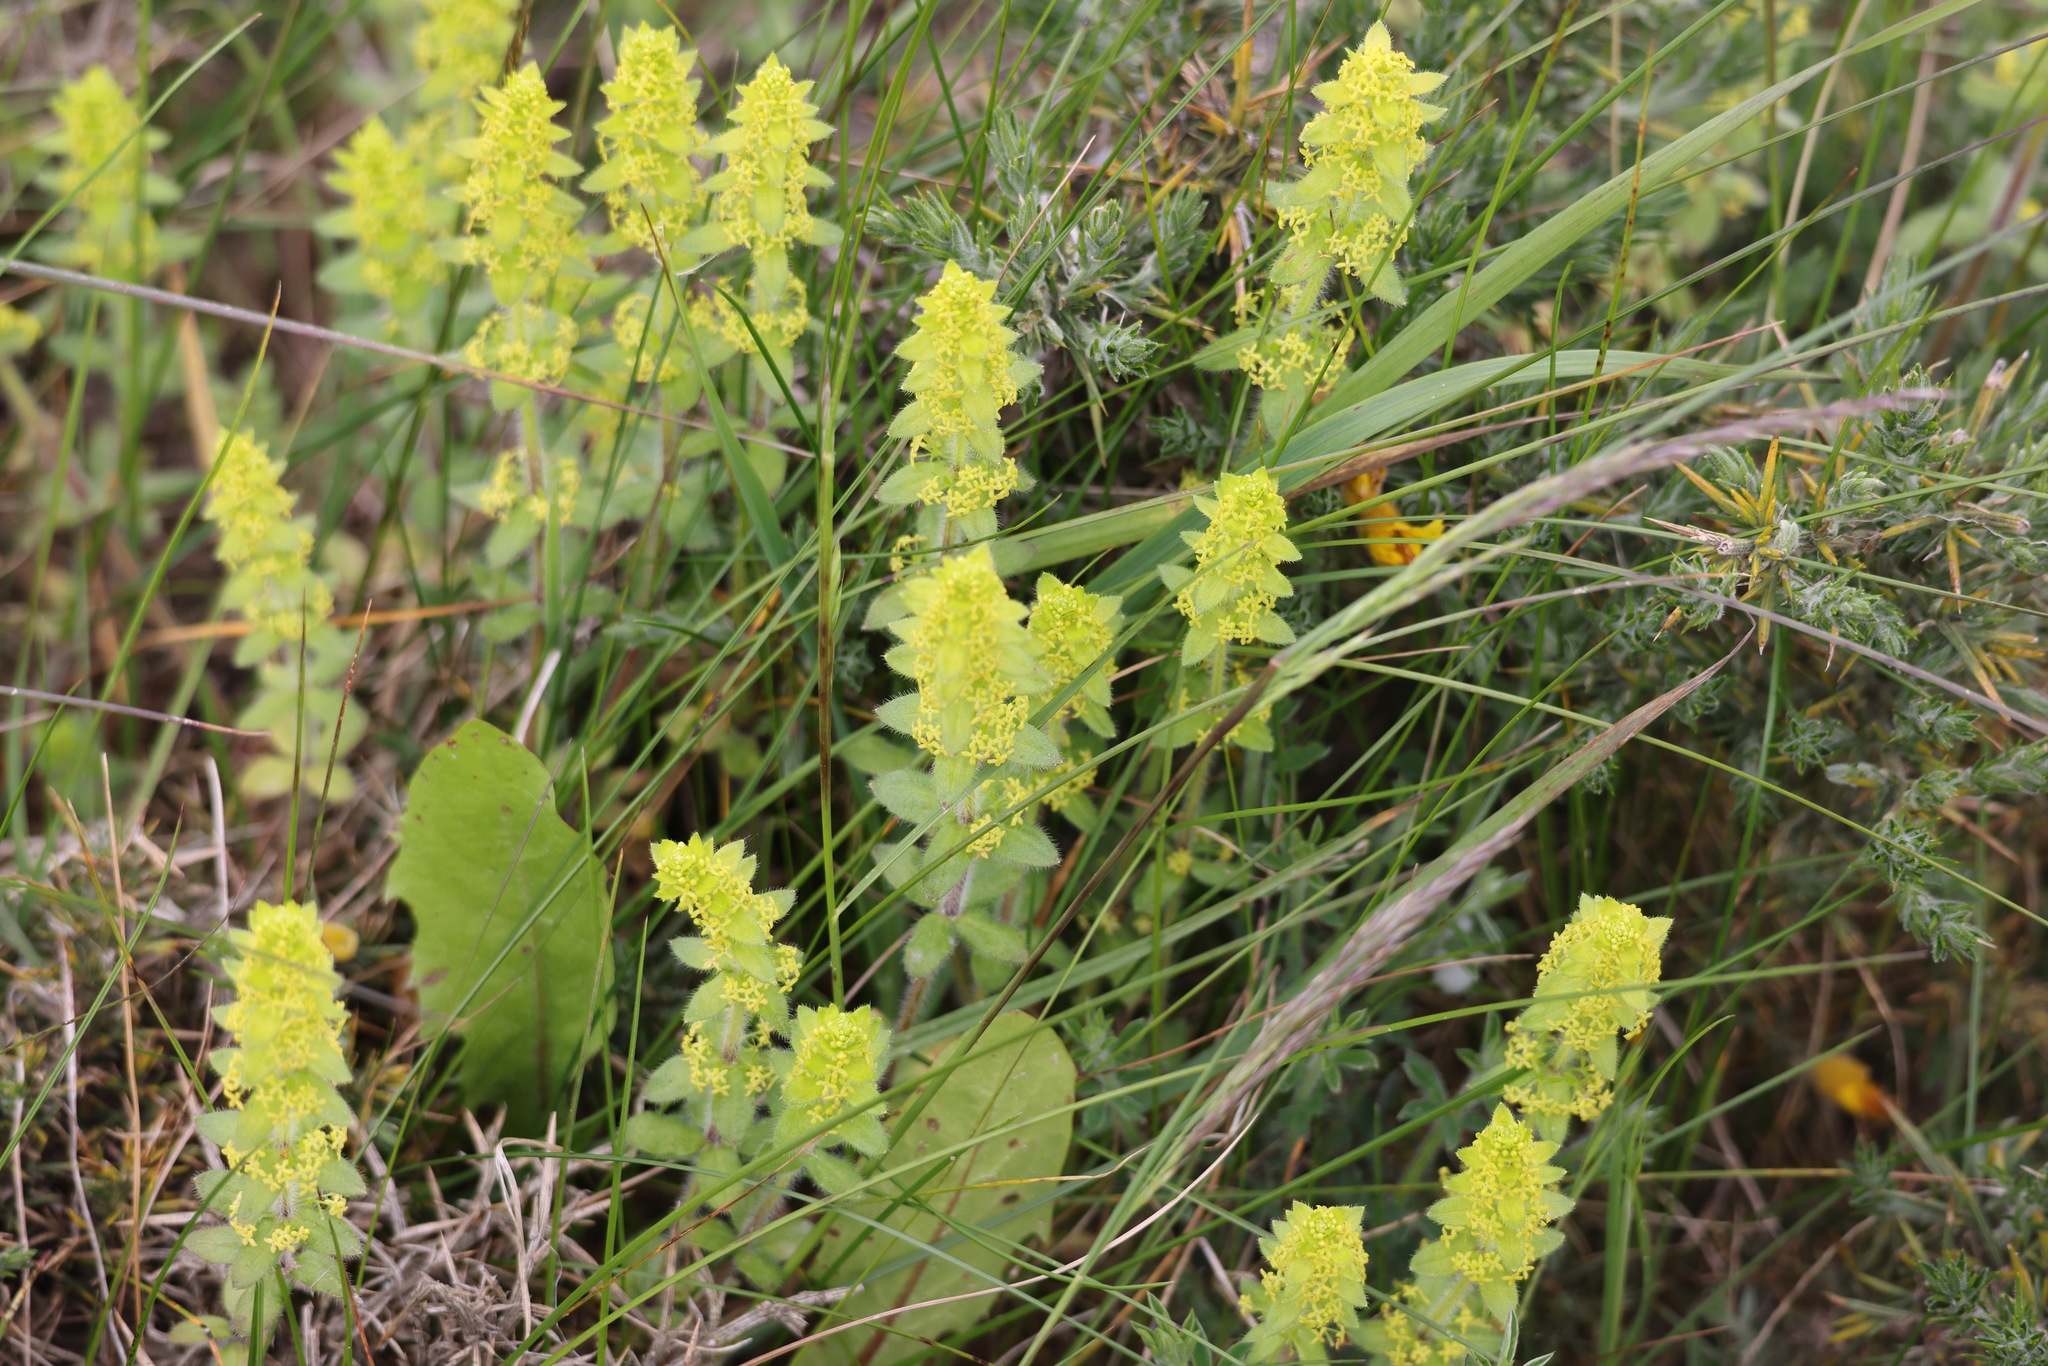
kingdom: Plantae
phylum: Tracheophyta
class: Magnoliopsida
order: Gentianales
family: Rubiaceae
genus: Cruciata
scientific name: Cruciata laevipes
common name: Crosswort
